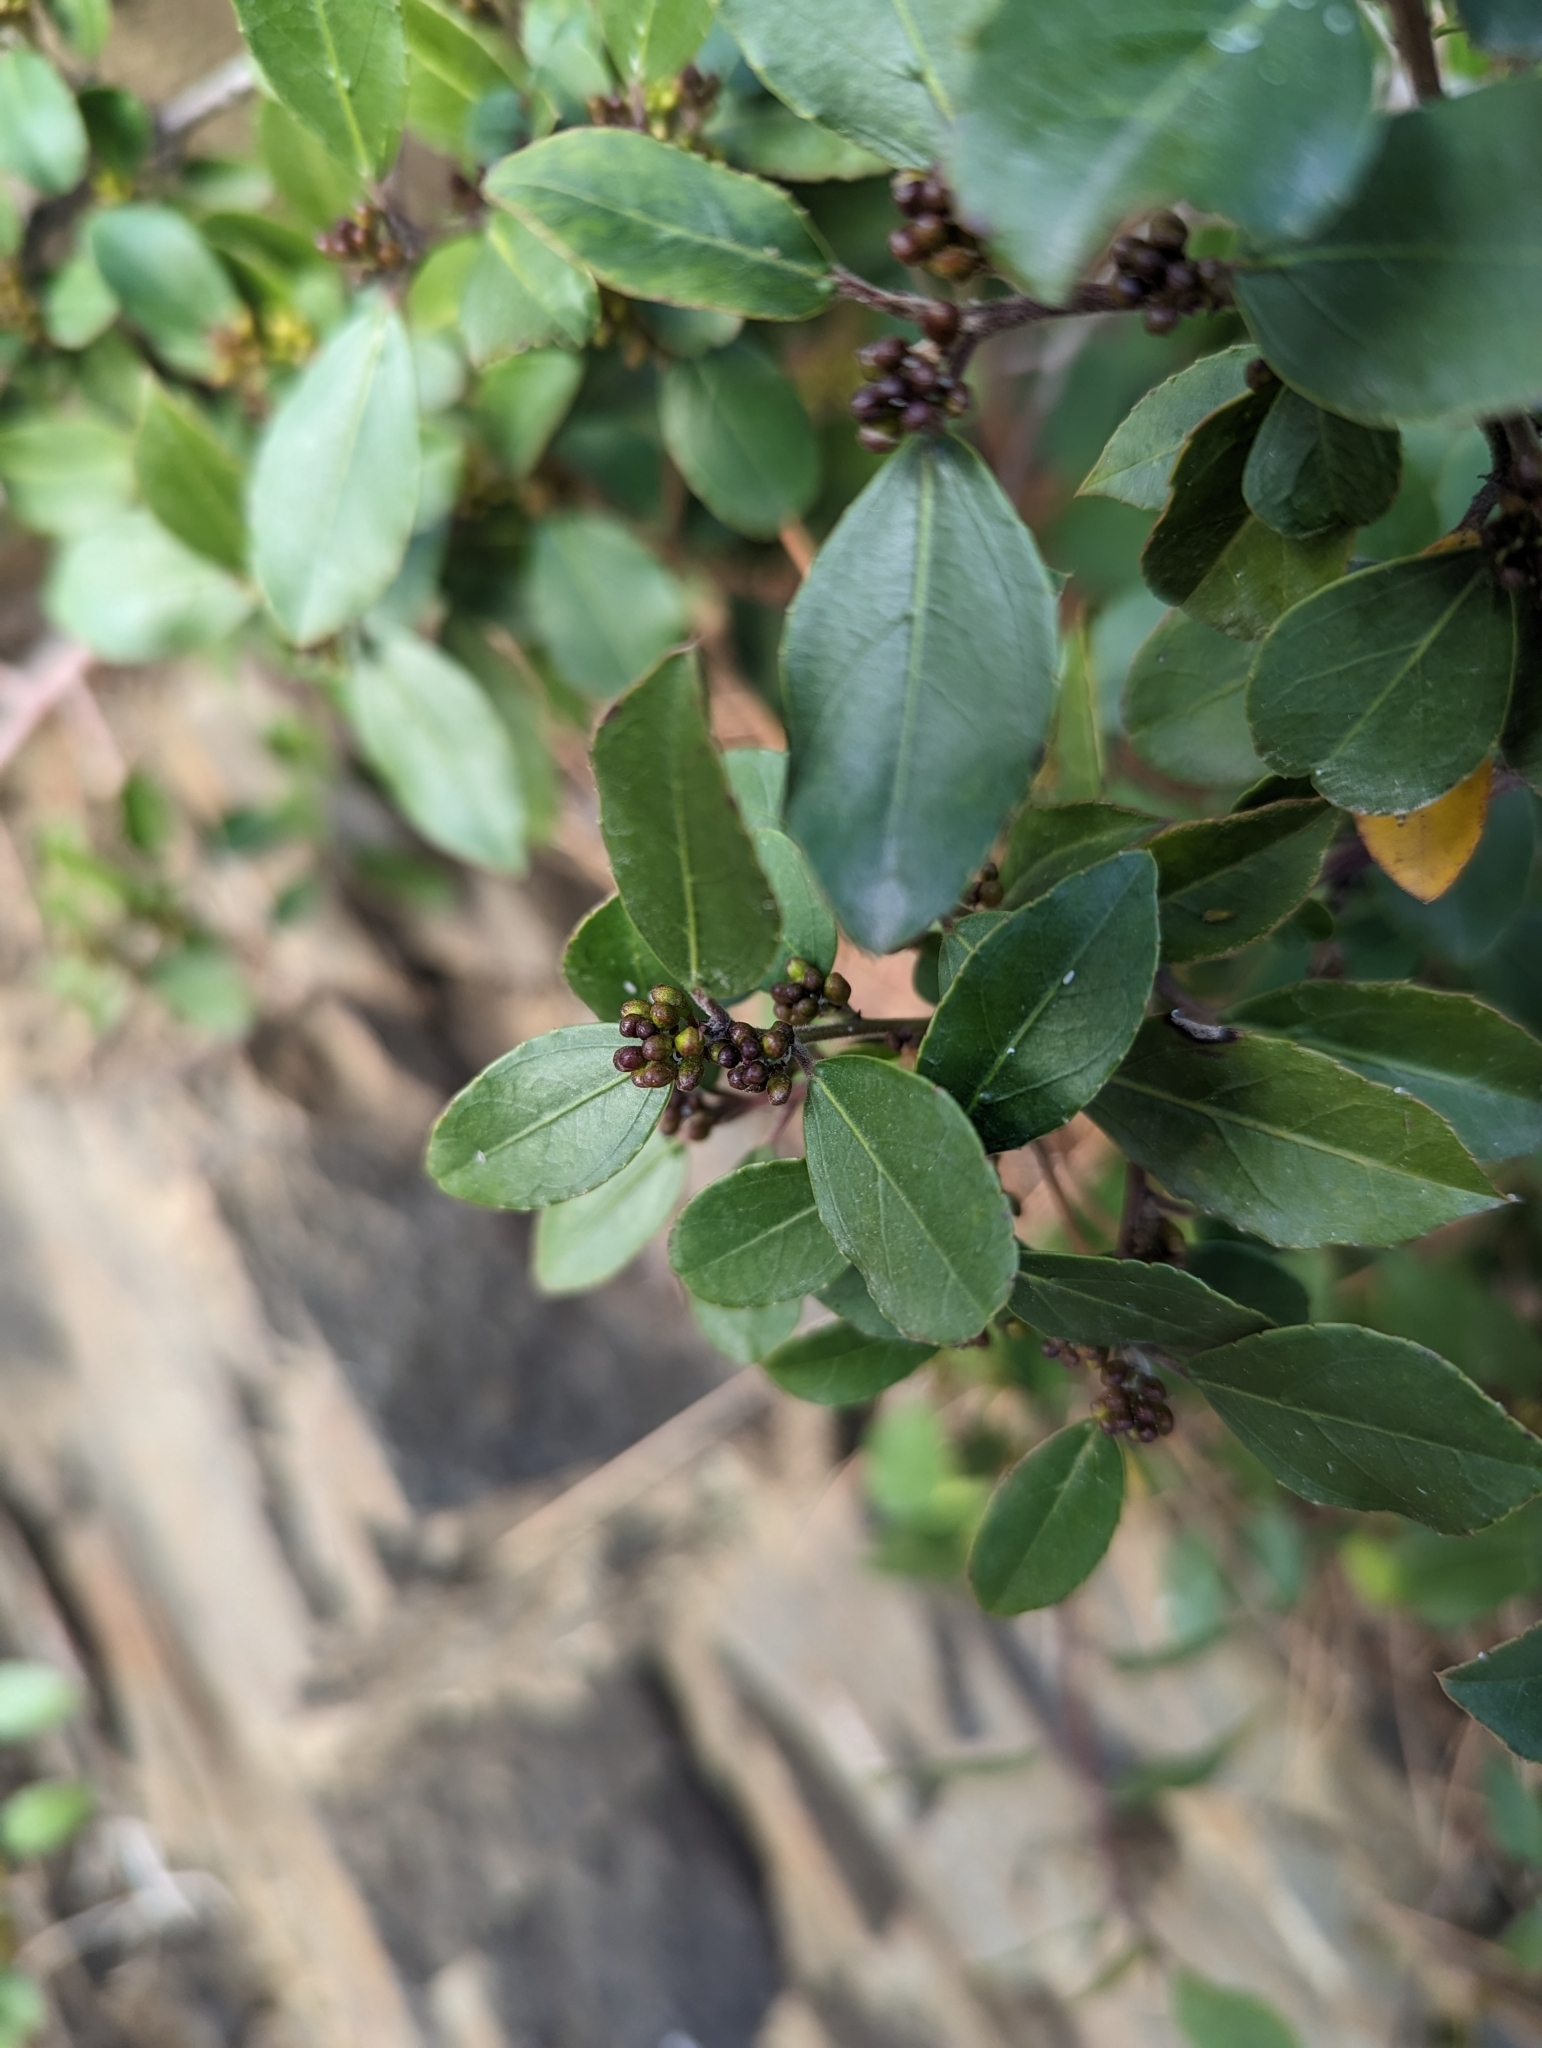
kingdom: Plantae
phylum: Tracheophyta
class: Magnoliopsida
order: Rosales
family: Rhamnaceae
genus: Rhamnus
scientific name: Rhamnus alaternus
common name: Mediterranean buckthorn
